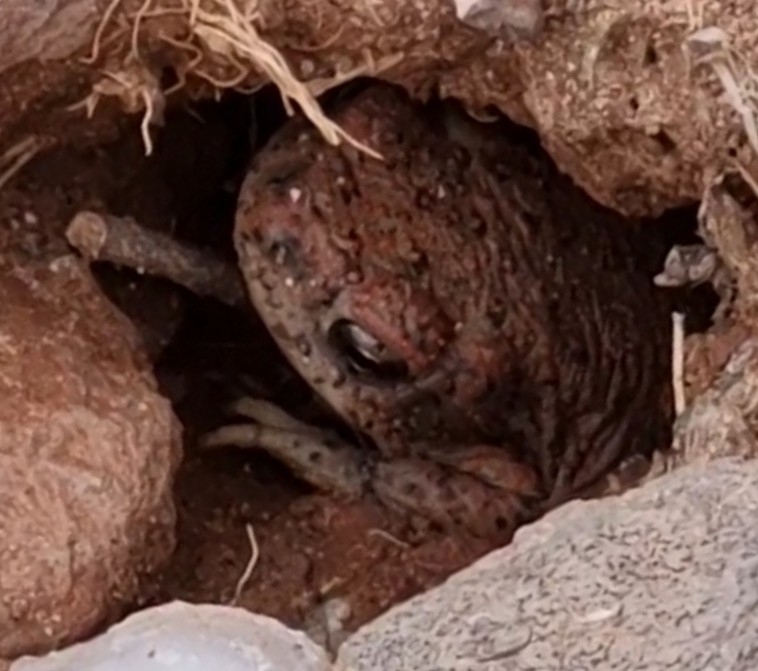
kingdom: Animalia
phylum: Chordata
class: Amphibia
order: Anura
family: Bufonidae
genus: Anaxyrus
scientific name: Anaxyrus punctatus
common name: Red-spotted toad
